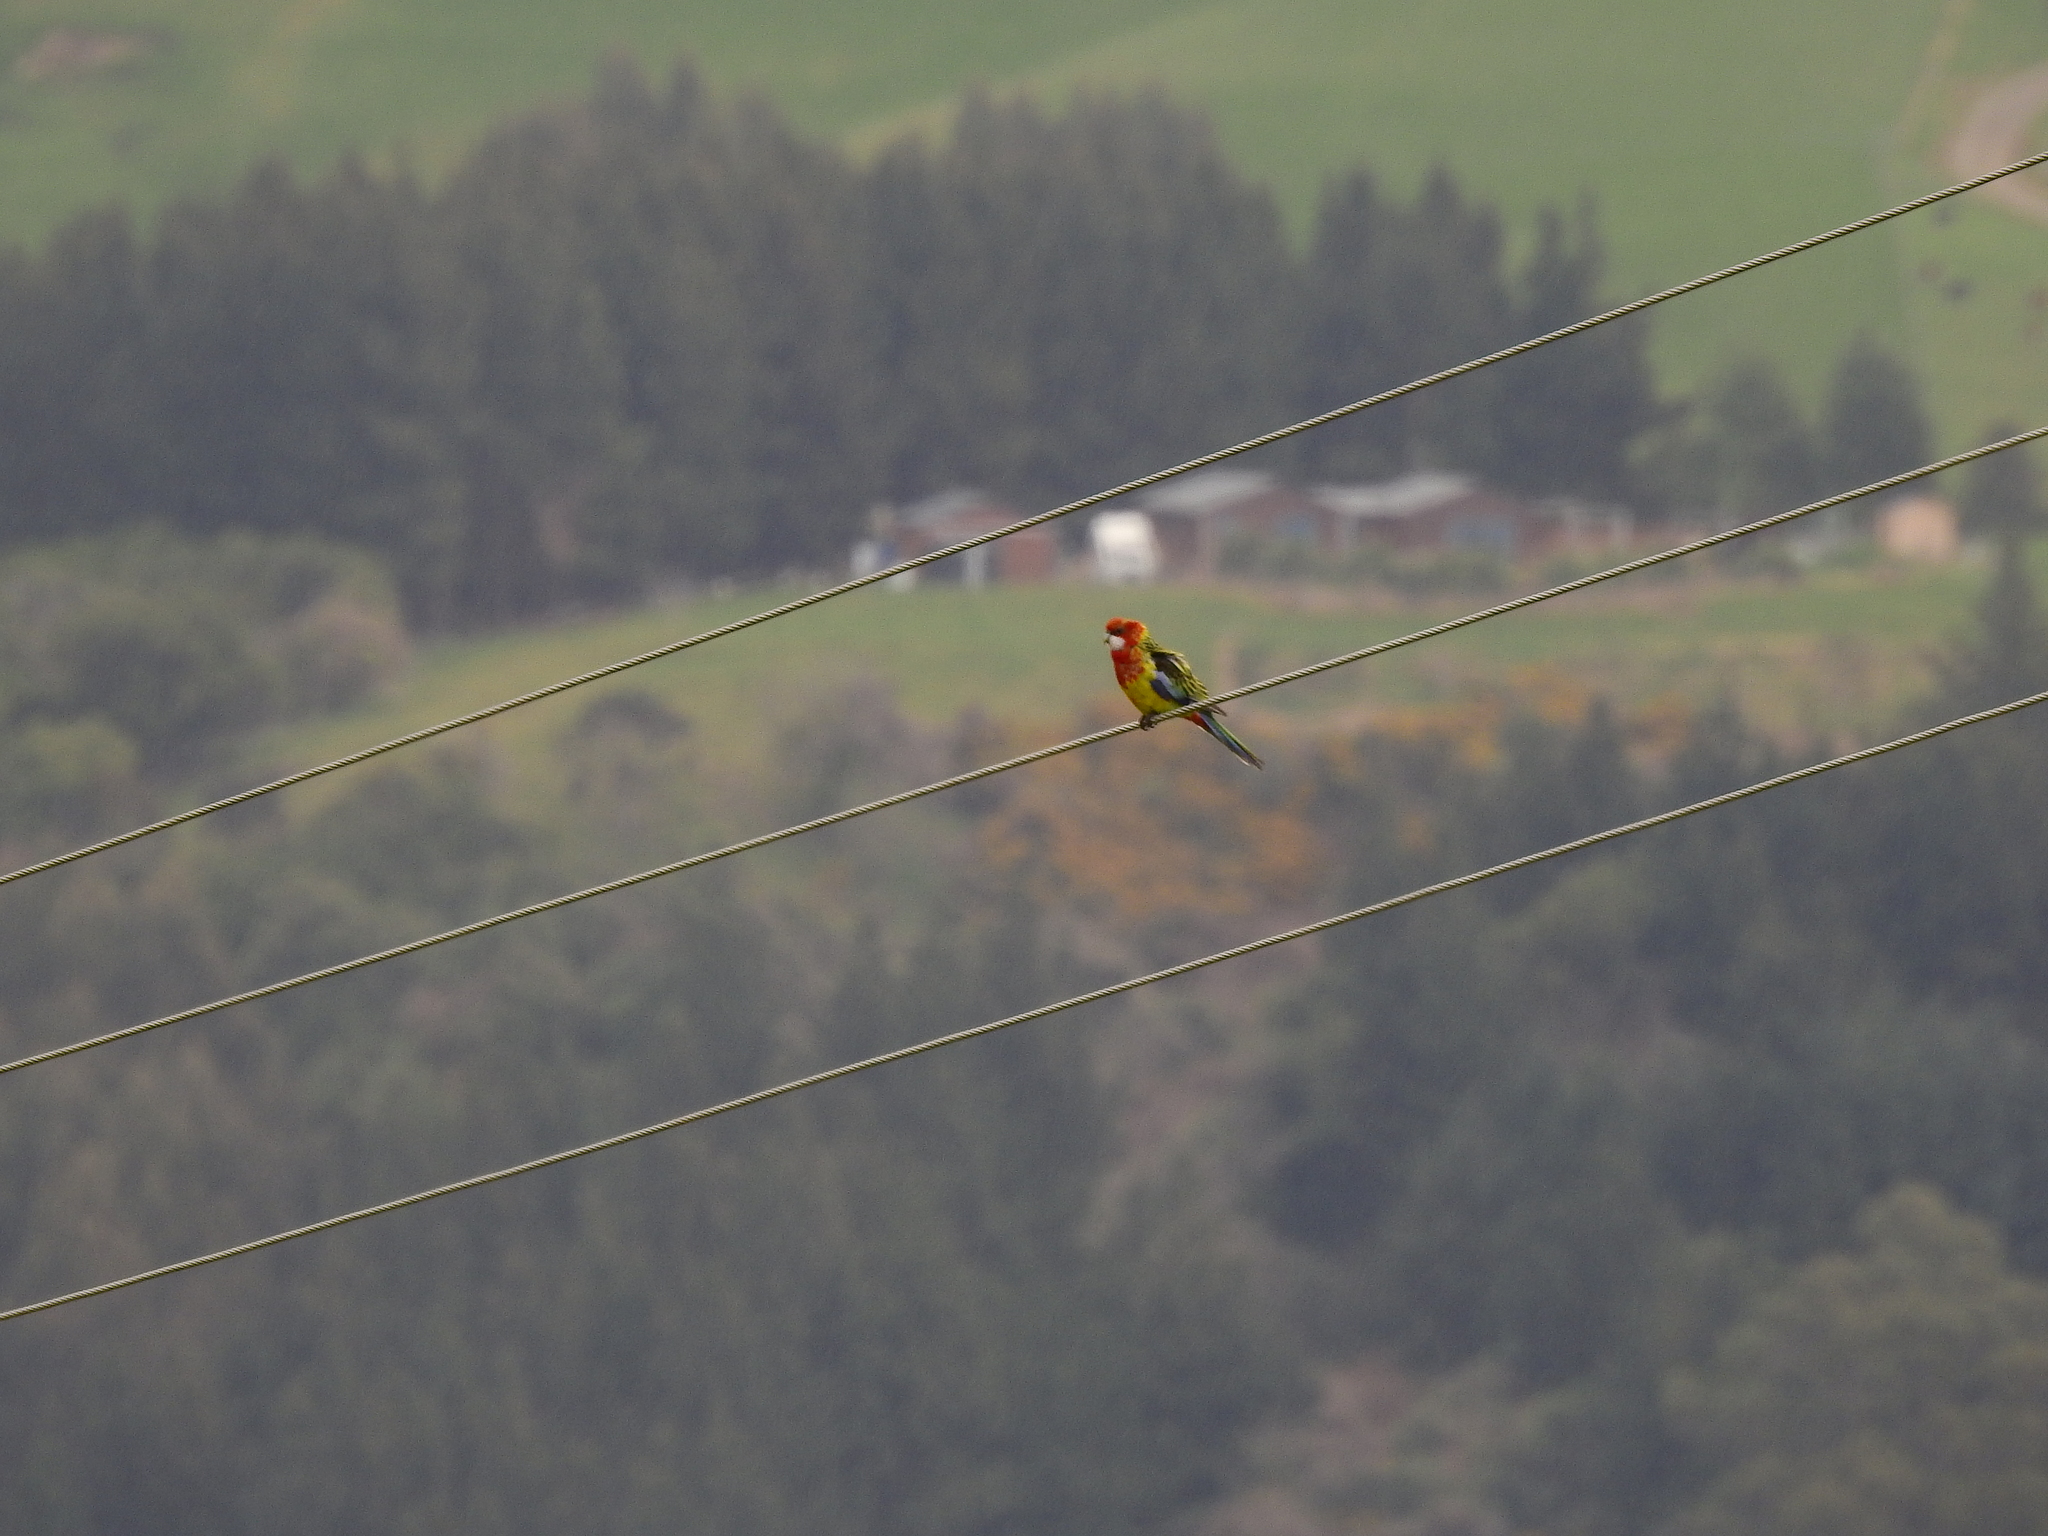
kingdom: Animalia
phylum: Chordata
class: Aves
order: Psittaciformes
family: Psittacidae
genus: Platycercus
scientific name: Platycercus eximius
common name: Eastern rosella
